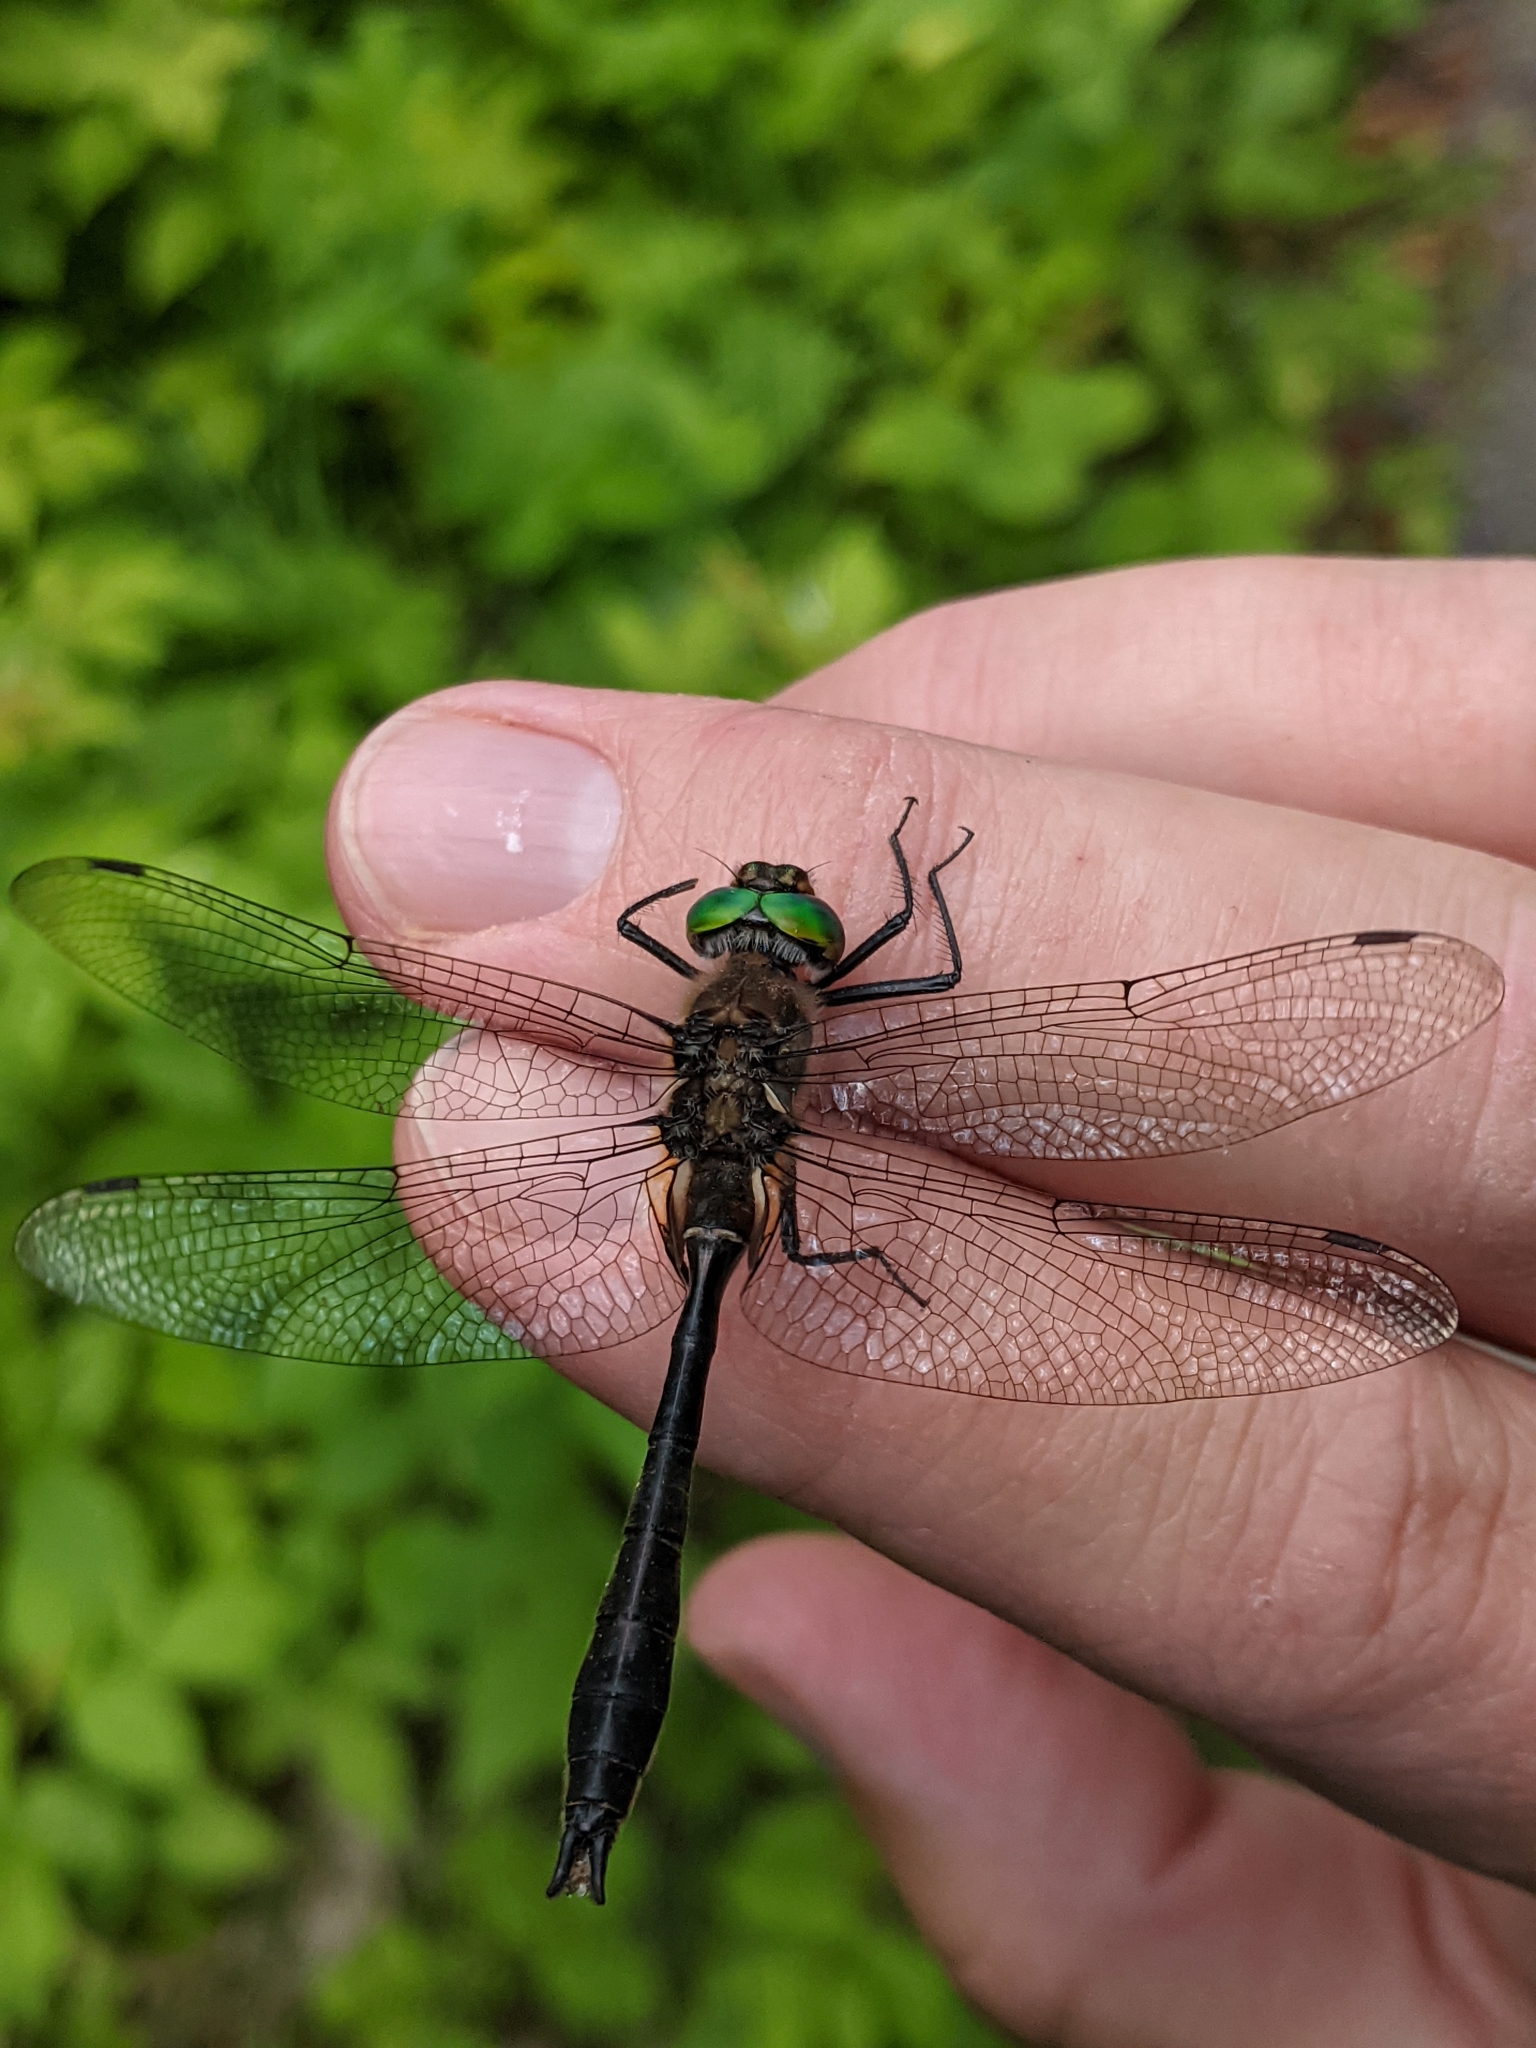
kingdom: Animalia
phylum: Arthropoda
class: Insecta
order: Odonata
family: Corduliidae
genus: Cordulia
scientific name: Cordulia shurtleffii
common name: American emerald
